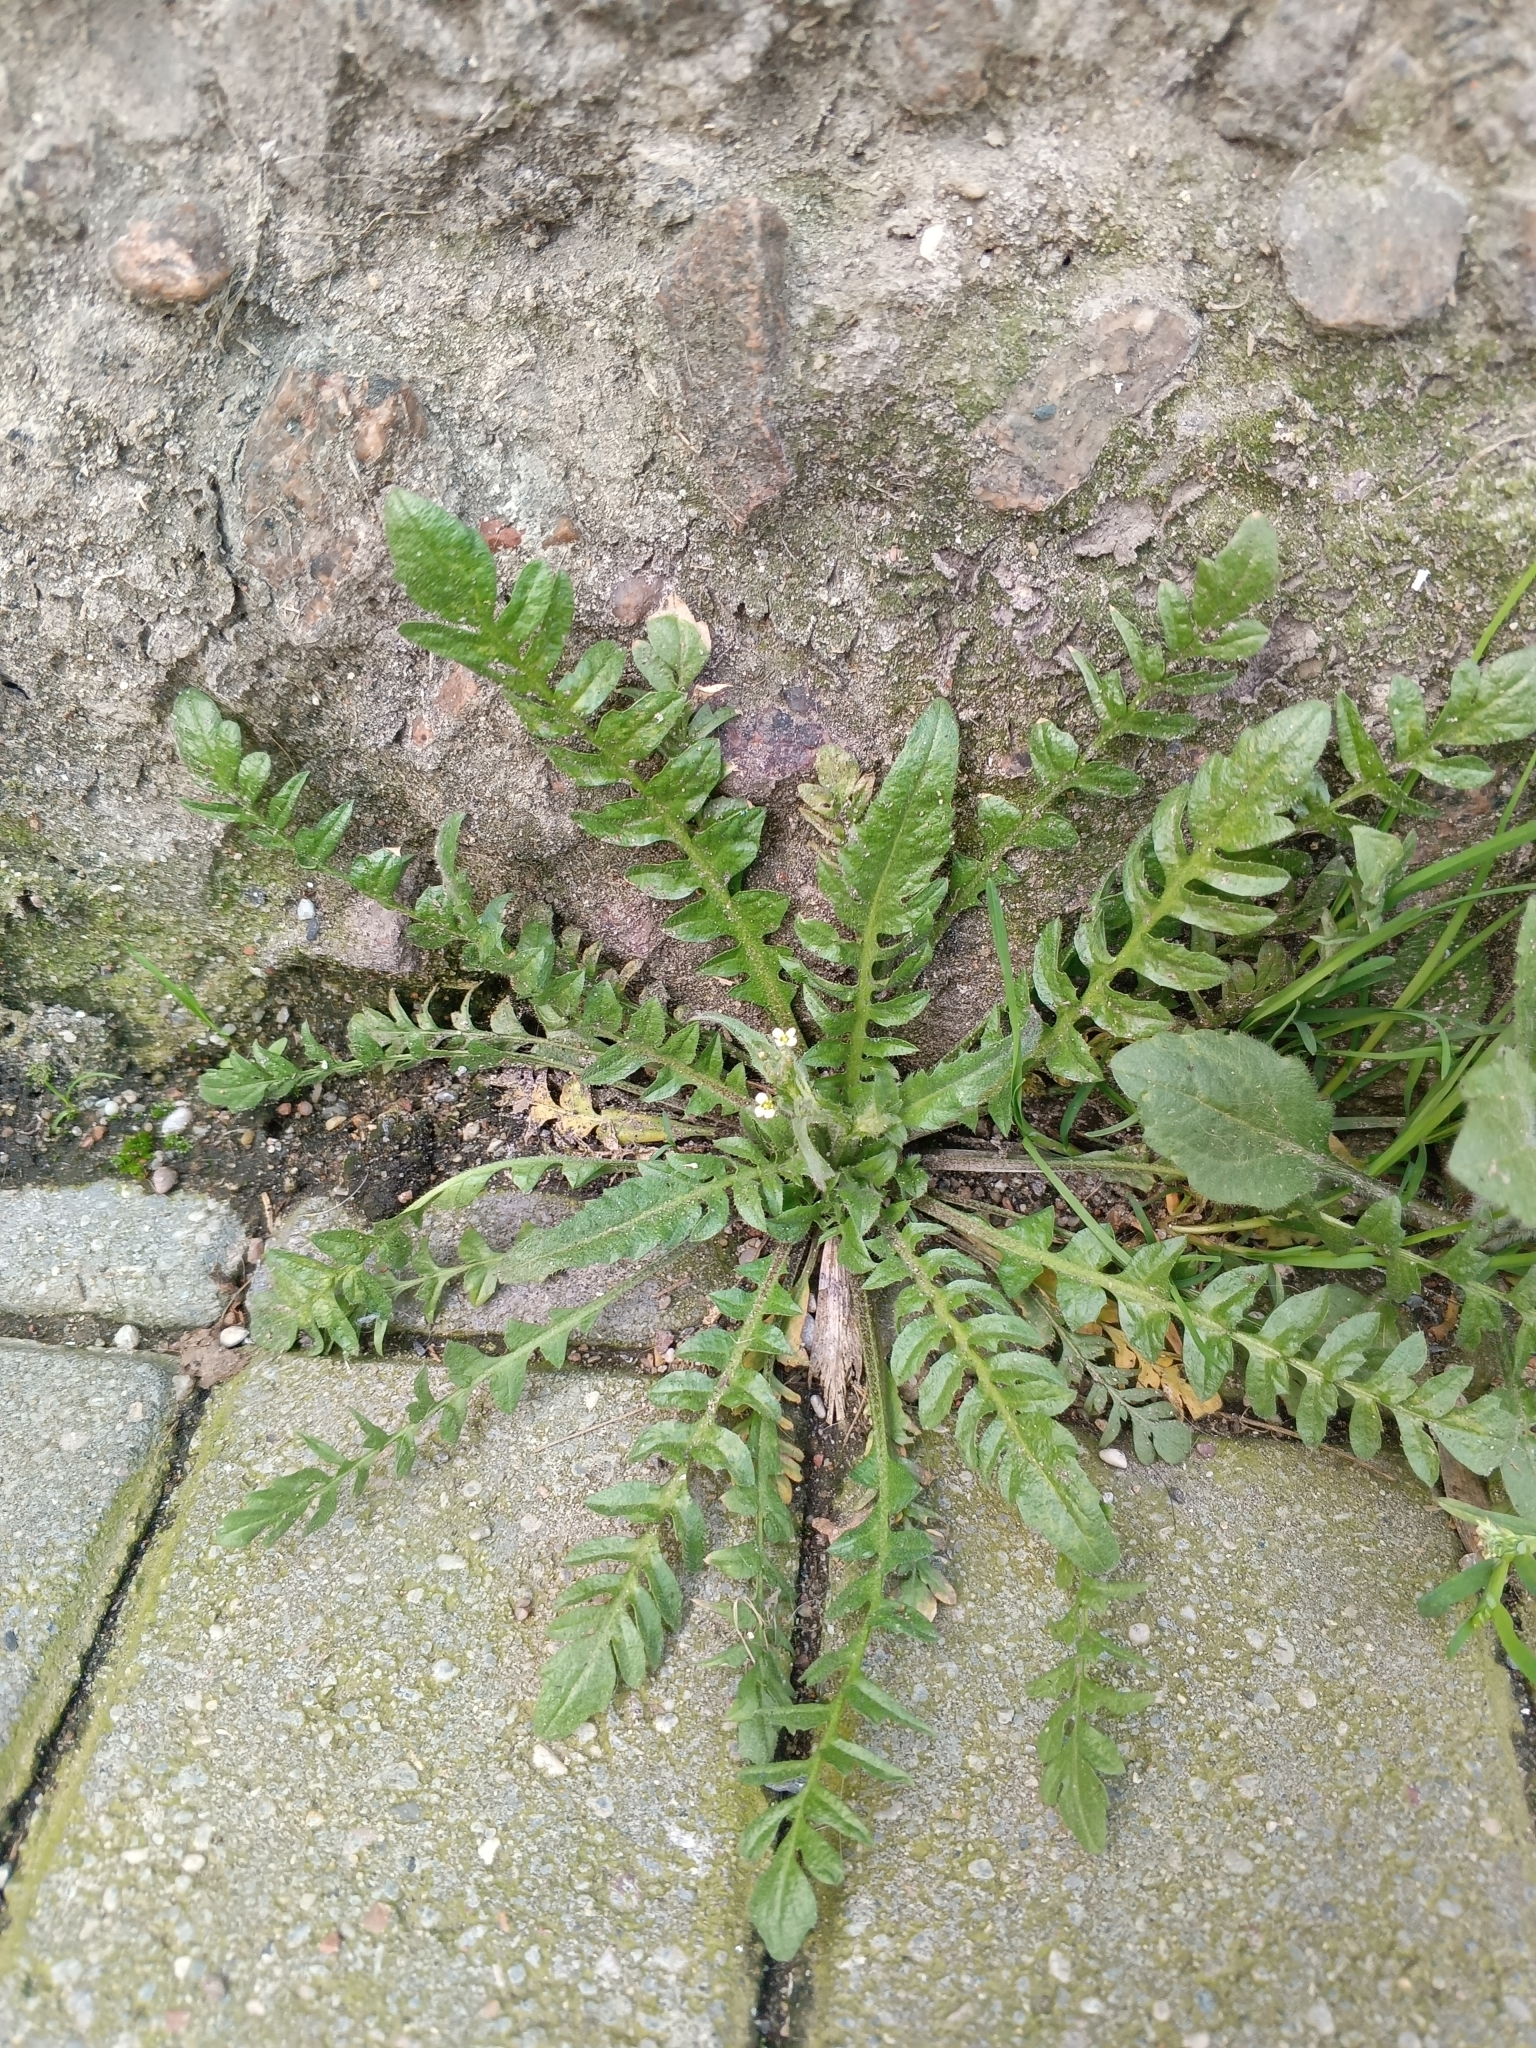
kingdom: Plantae
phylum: Tracheophyta
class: Magnoliopsida
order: Brassicales
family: Brassicaceae
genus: Capsella
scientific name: Capsella bursa-pastoris
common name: Shepherd's purse
